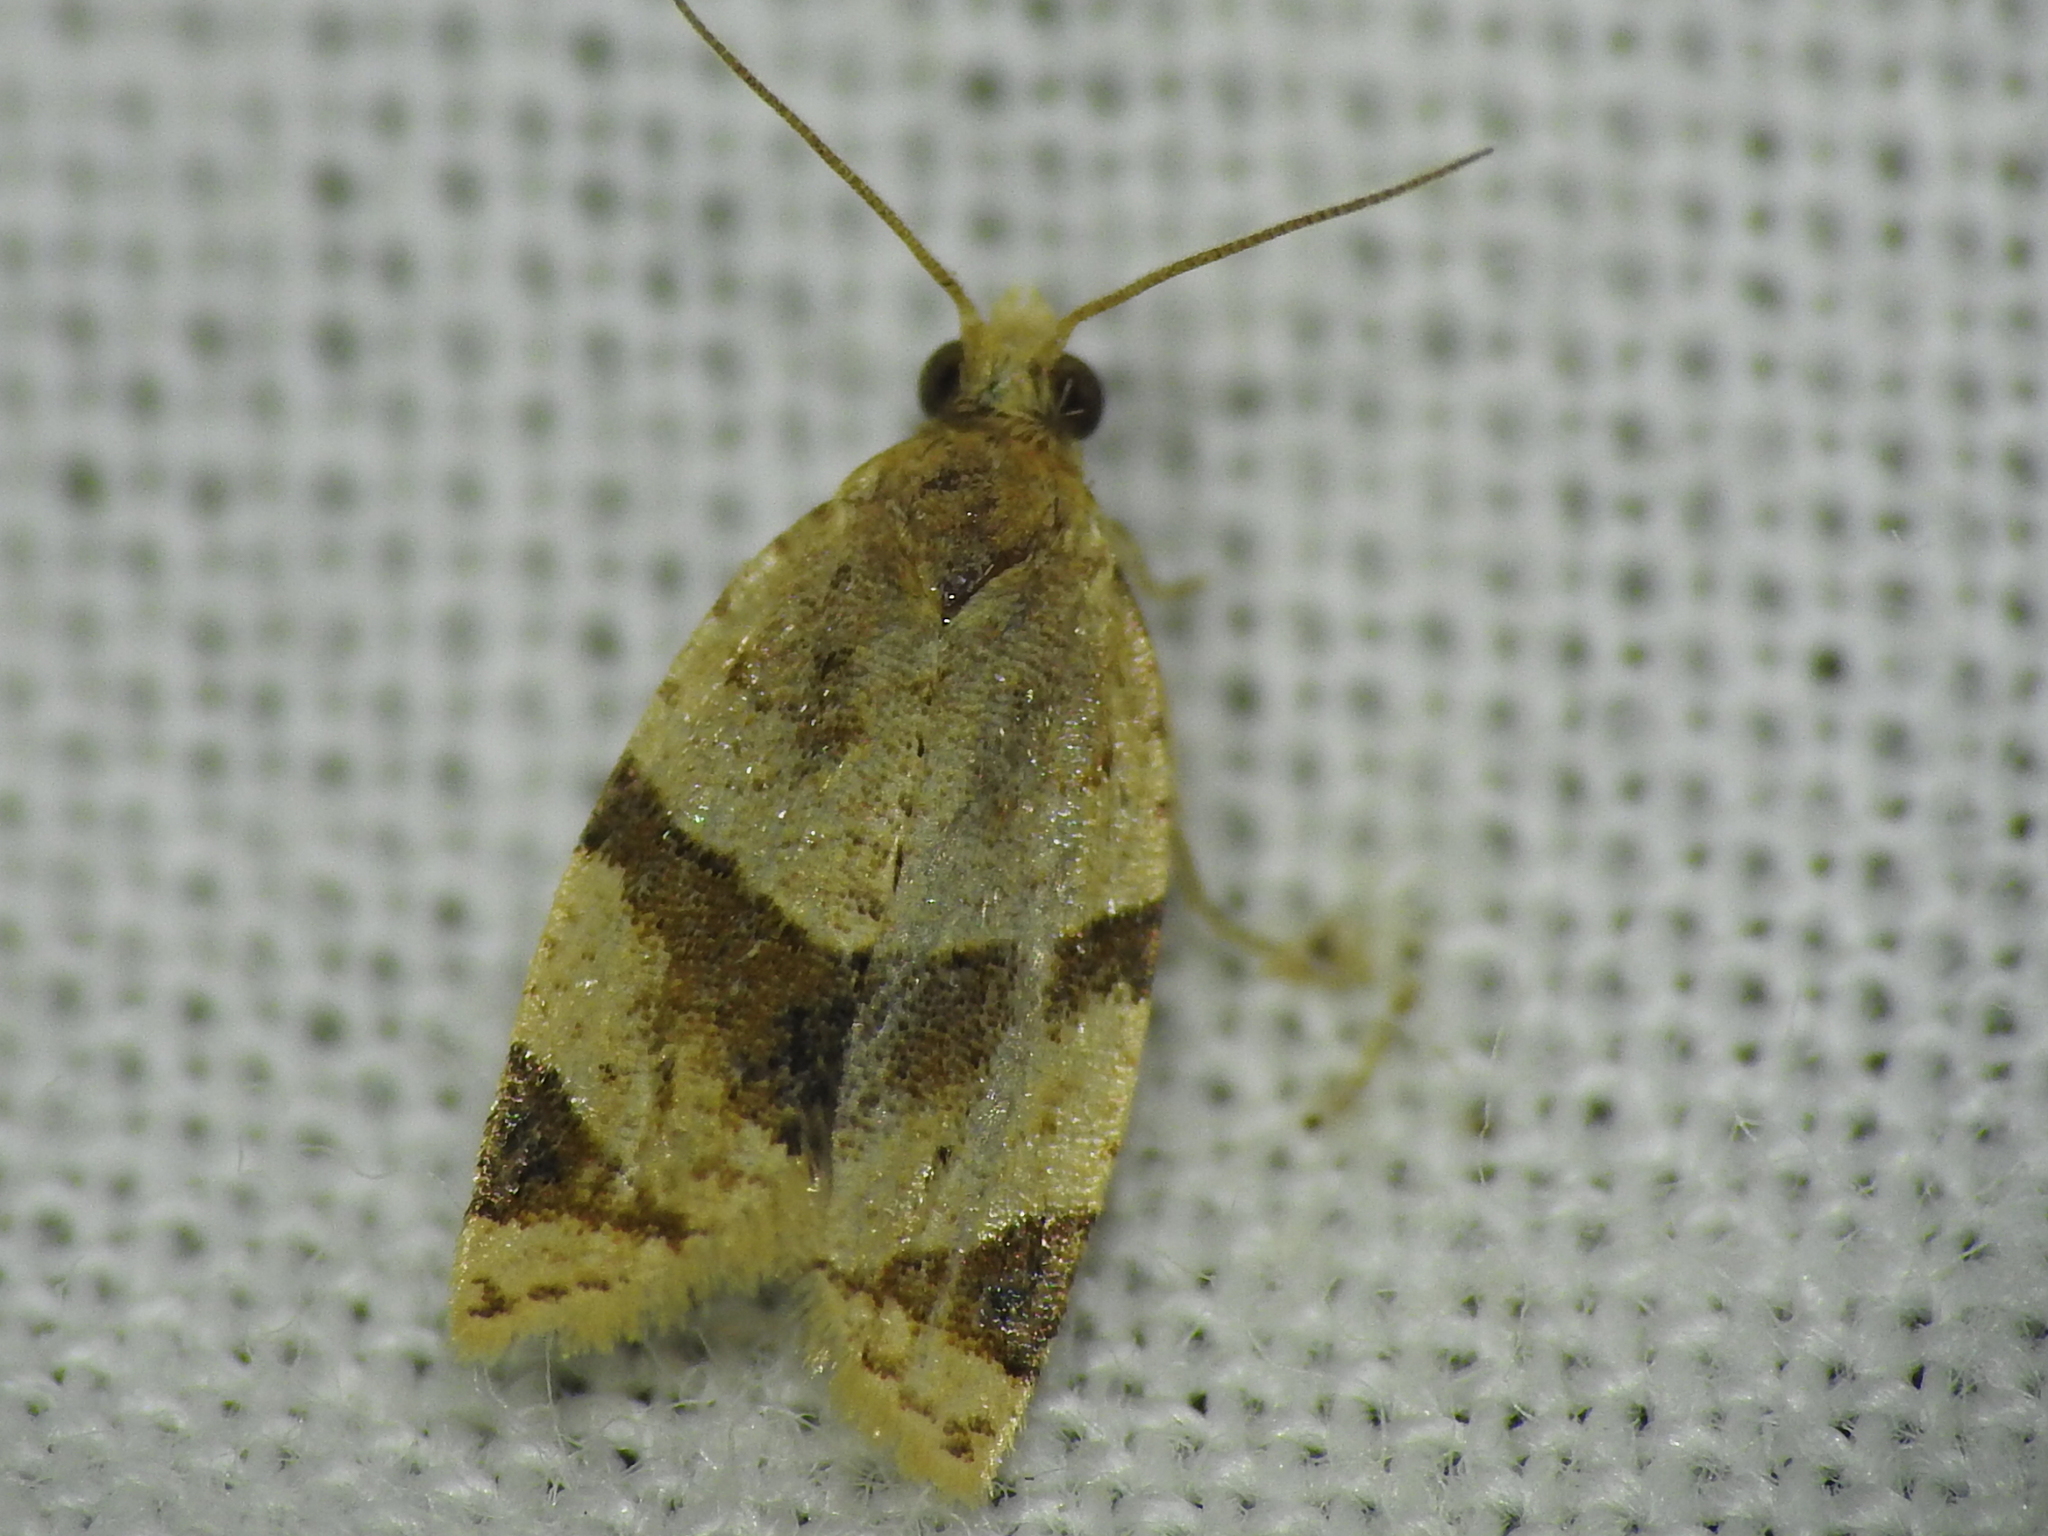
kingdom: Animalia
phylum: Arthropoda
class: Insecta
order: Lepidoptera
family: Tortricidae
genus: Clepsis
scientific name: Clepsis peritana
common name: Garden tortrix
